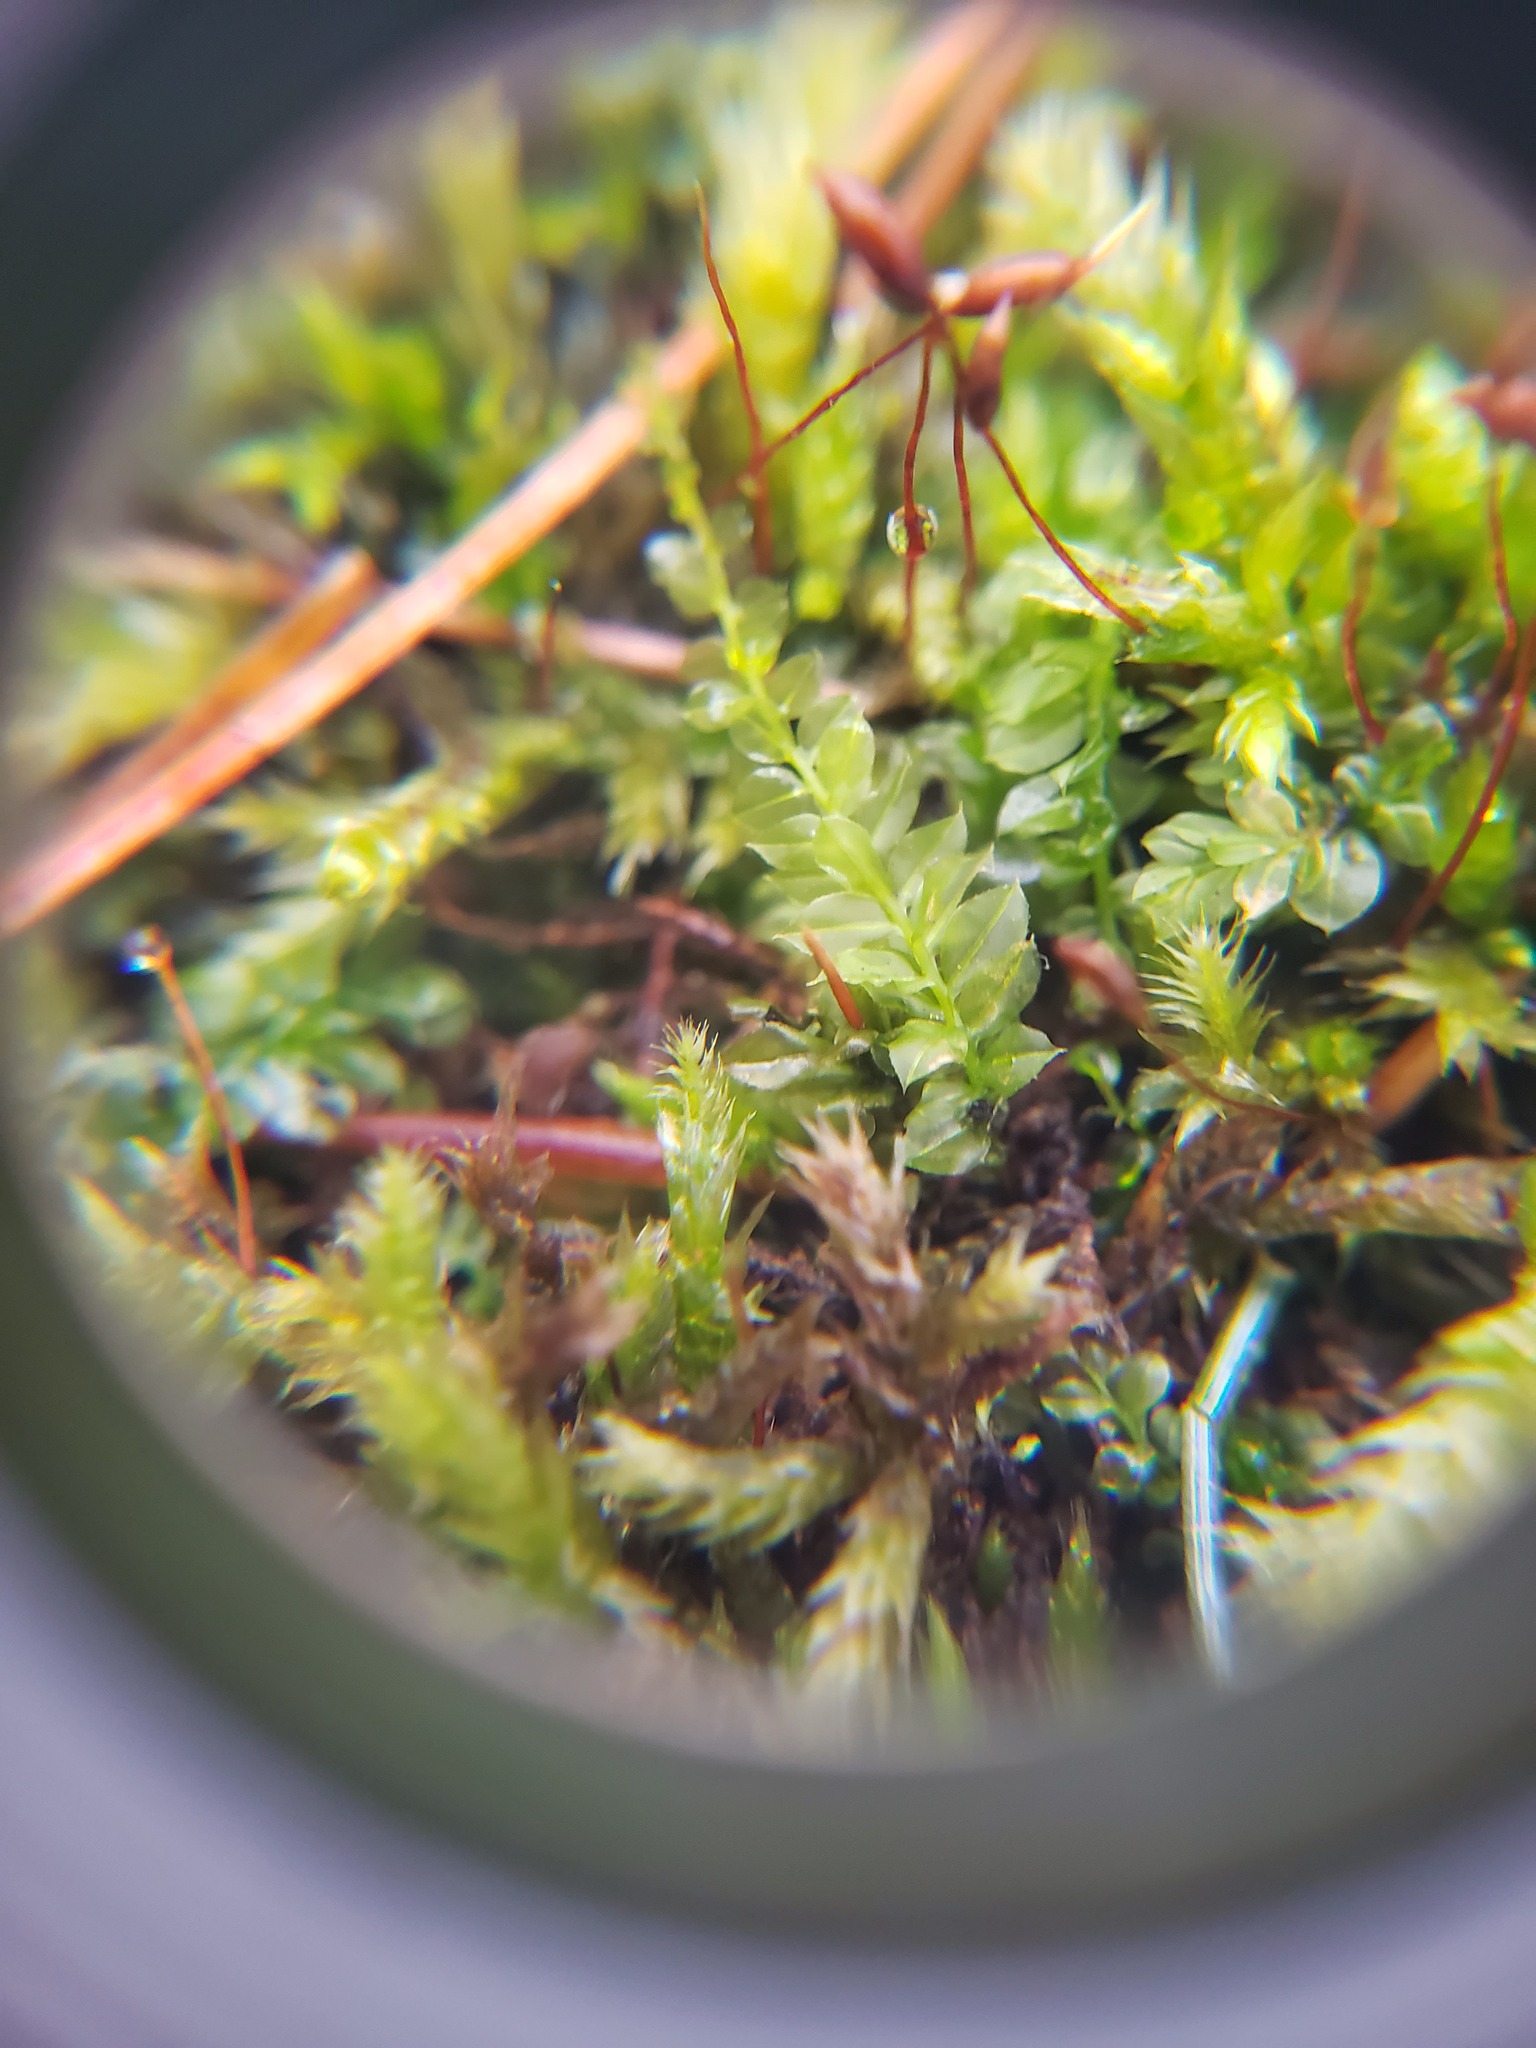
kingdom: Plantae
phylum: Bryophyta
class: Bryopsida
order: Bryales
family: Mniaceae
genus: Plagiomnium
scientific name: Plagiomnium cuspidatum
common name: Woodsy leafy moss
